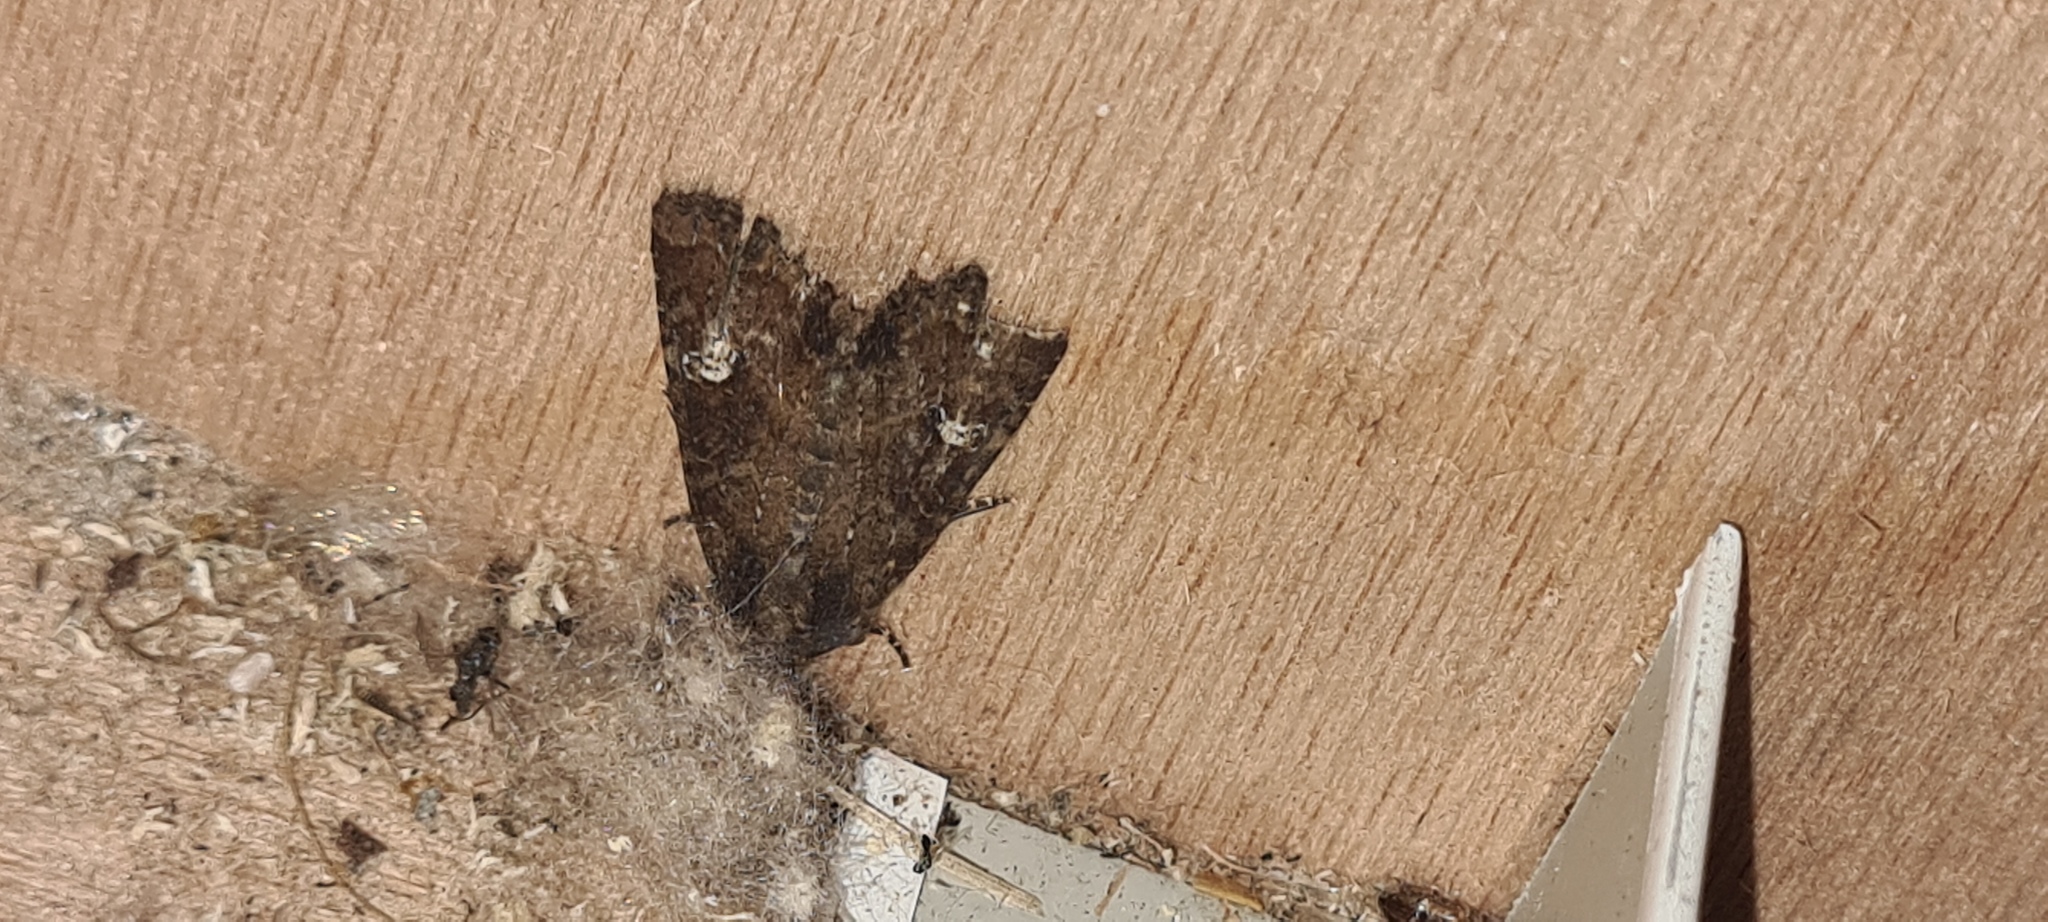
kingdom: Animalia
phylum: Arthropoda
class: Insecta
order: Lepidoptera
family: Noctuidae
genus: Mesapamea
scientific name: Mesapamea
